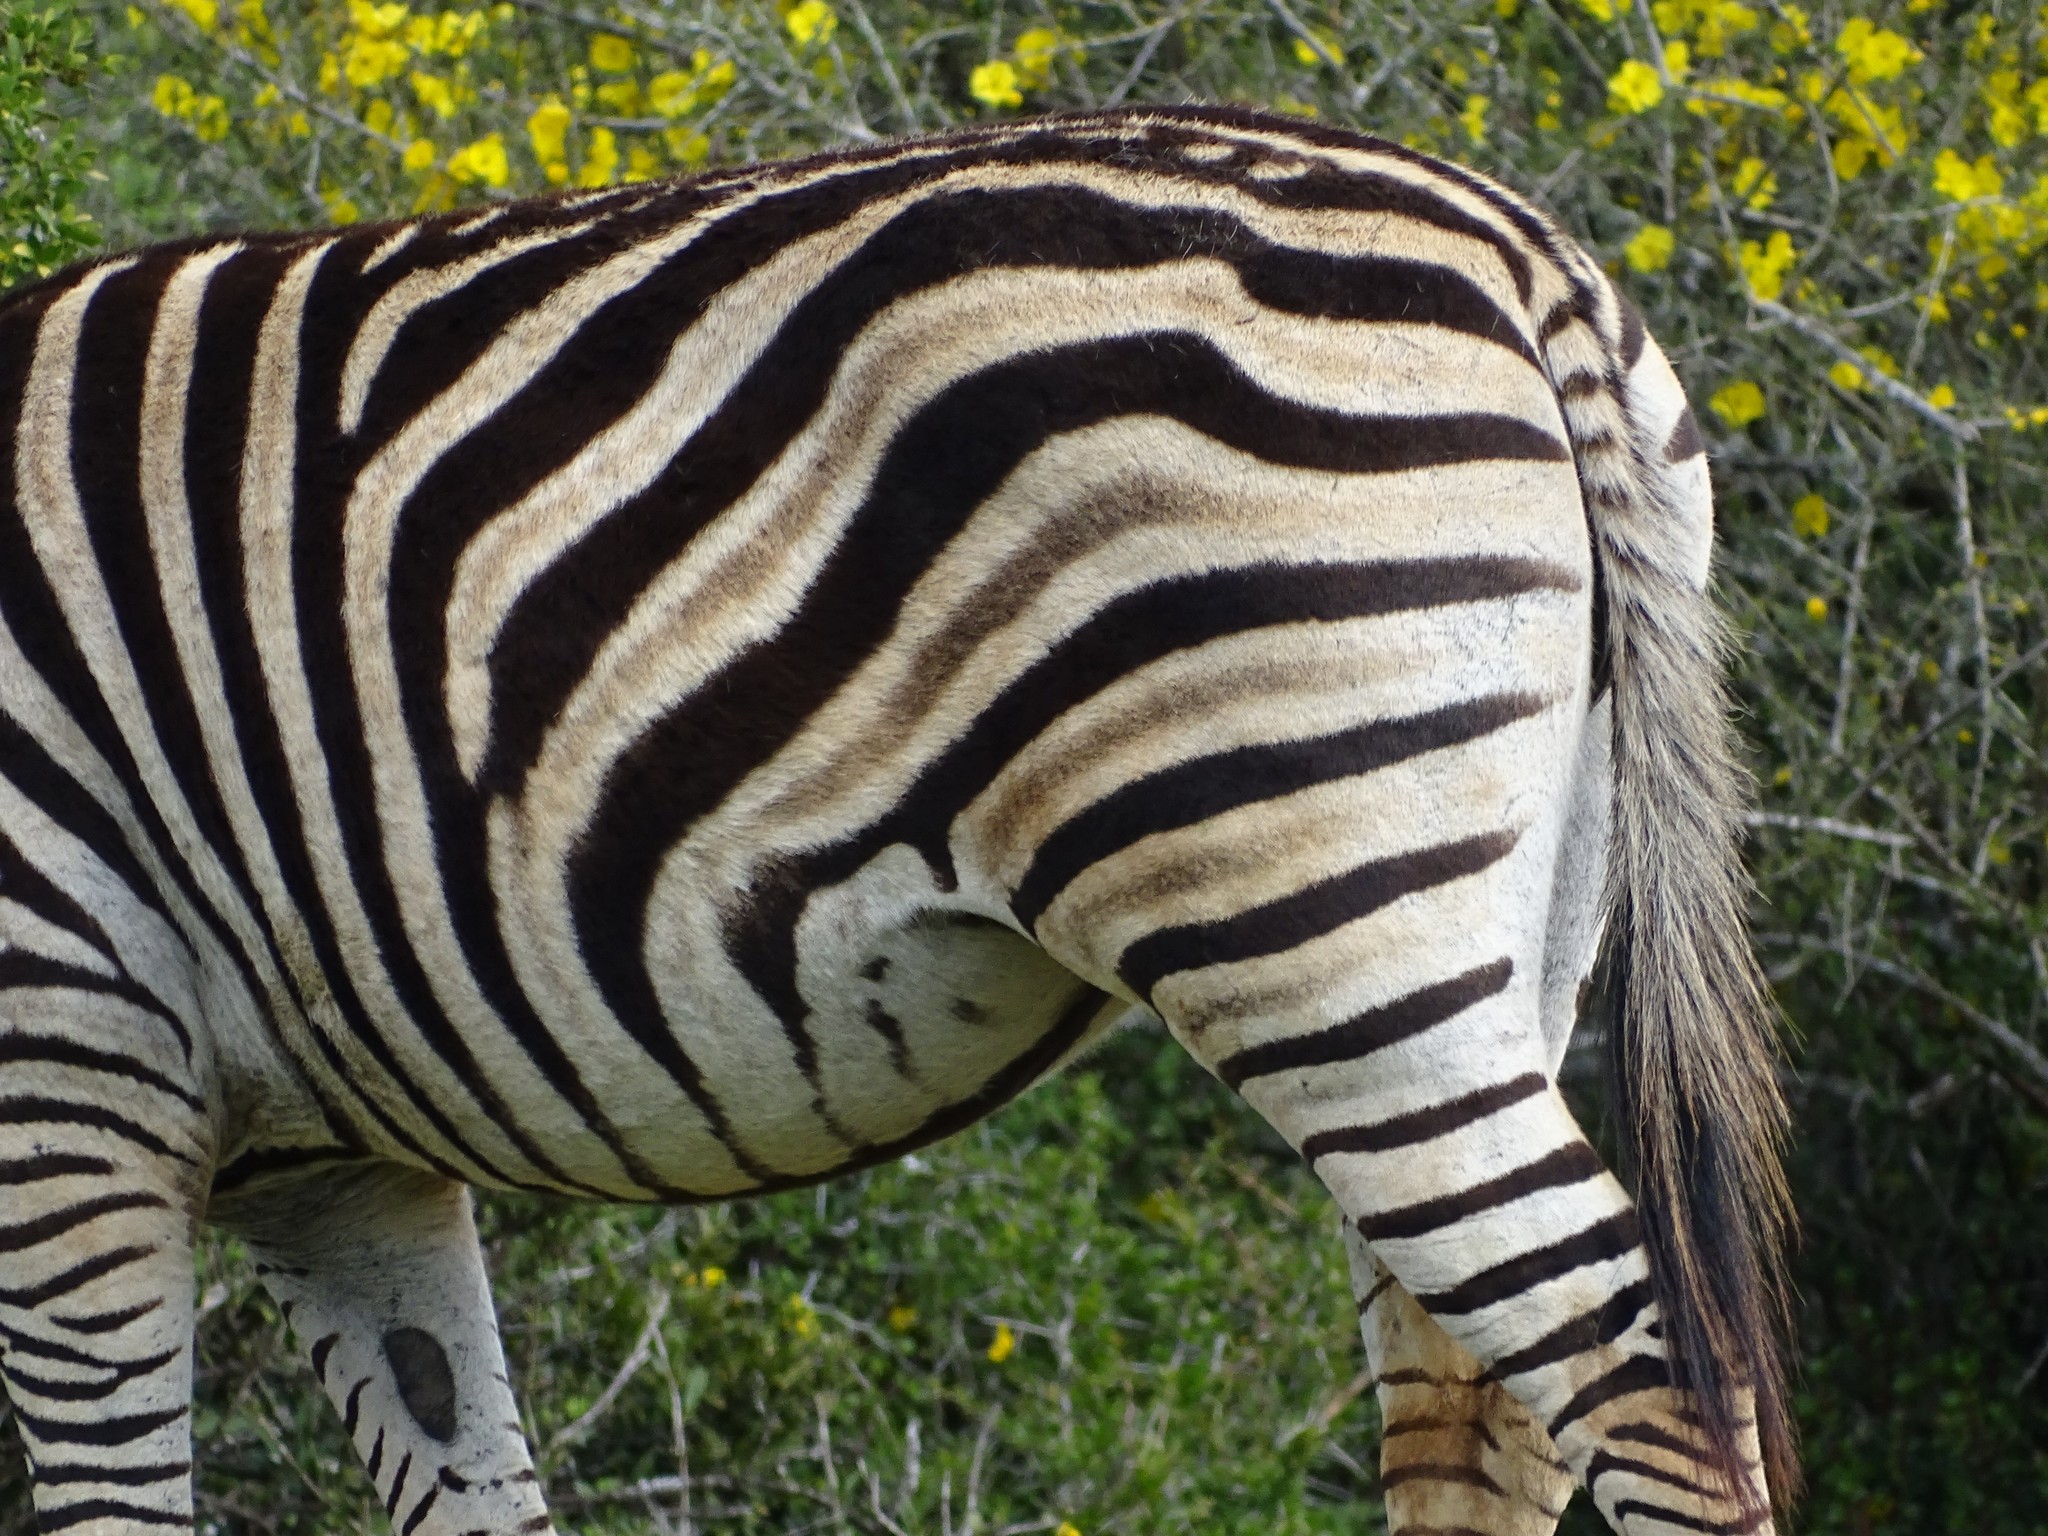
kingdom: Animalia
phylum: Chordata
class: Mammalia
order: Perissodactyla
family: Equidae
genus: Equus
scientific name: Equus quagga
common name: Plains zebra
